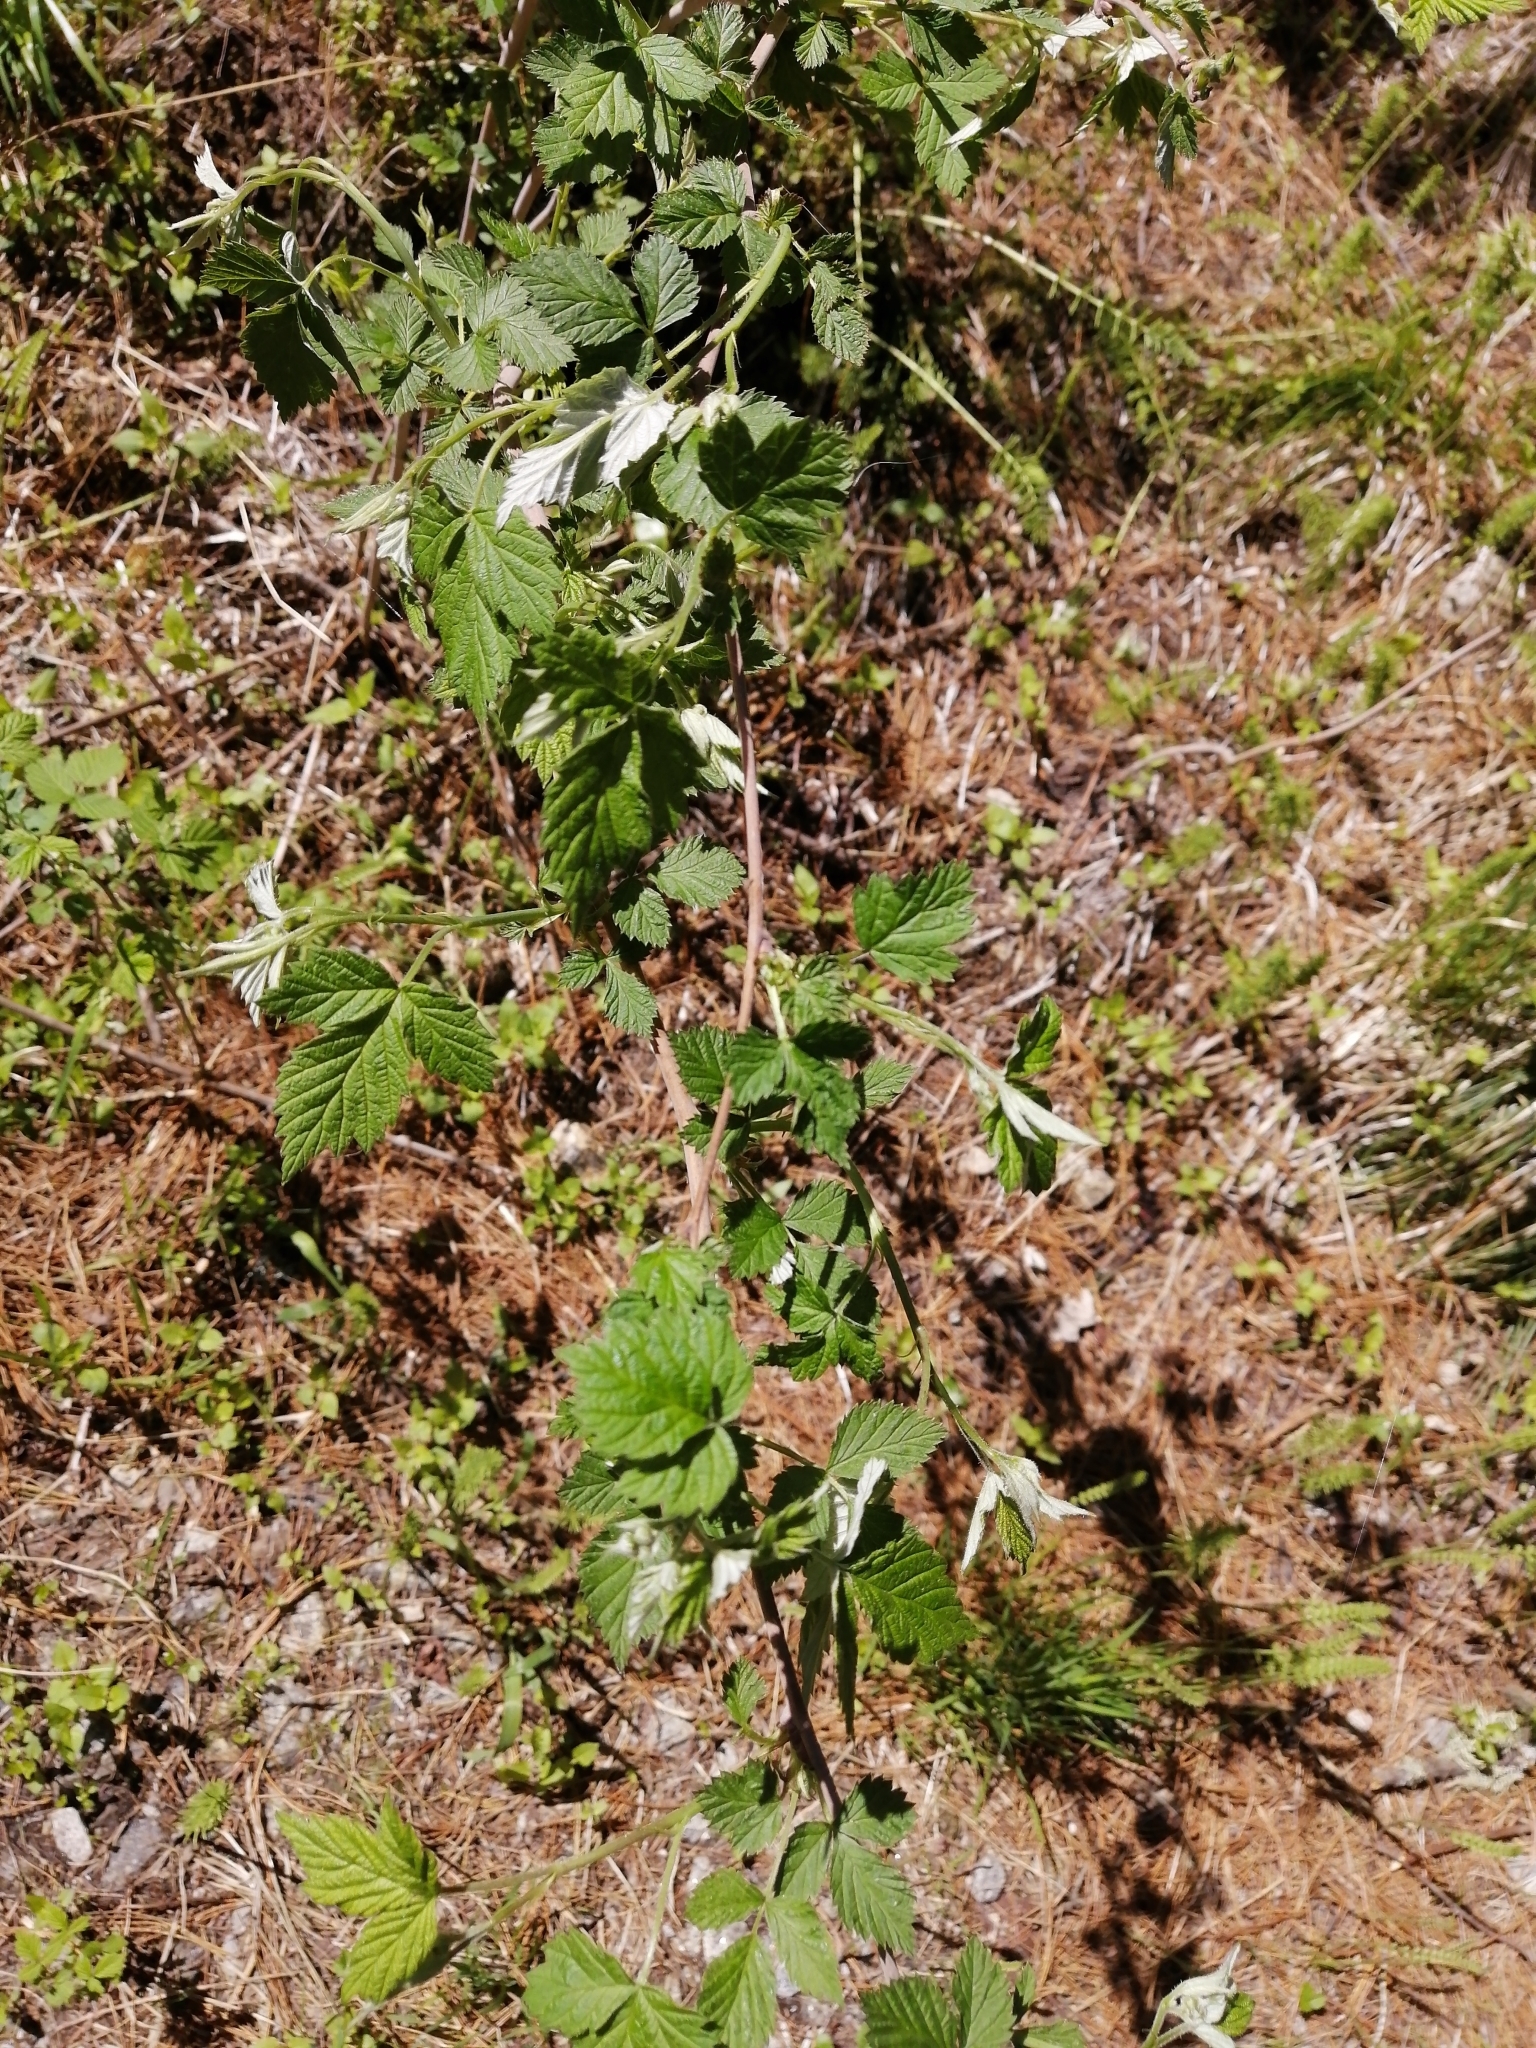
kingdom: Plantae
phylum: Tracheophyta
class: Magnoliopsida
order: Rosales
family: Rosaceae
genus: Rubus
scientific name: Rubus idaeus
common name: Raspberry
